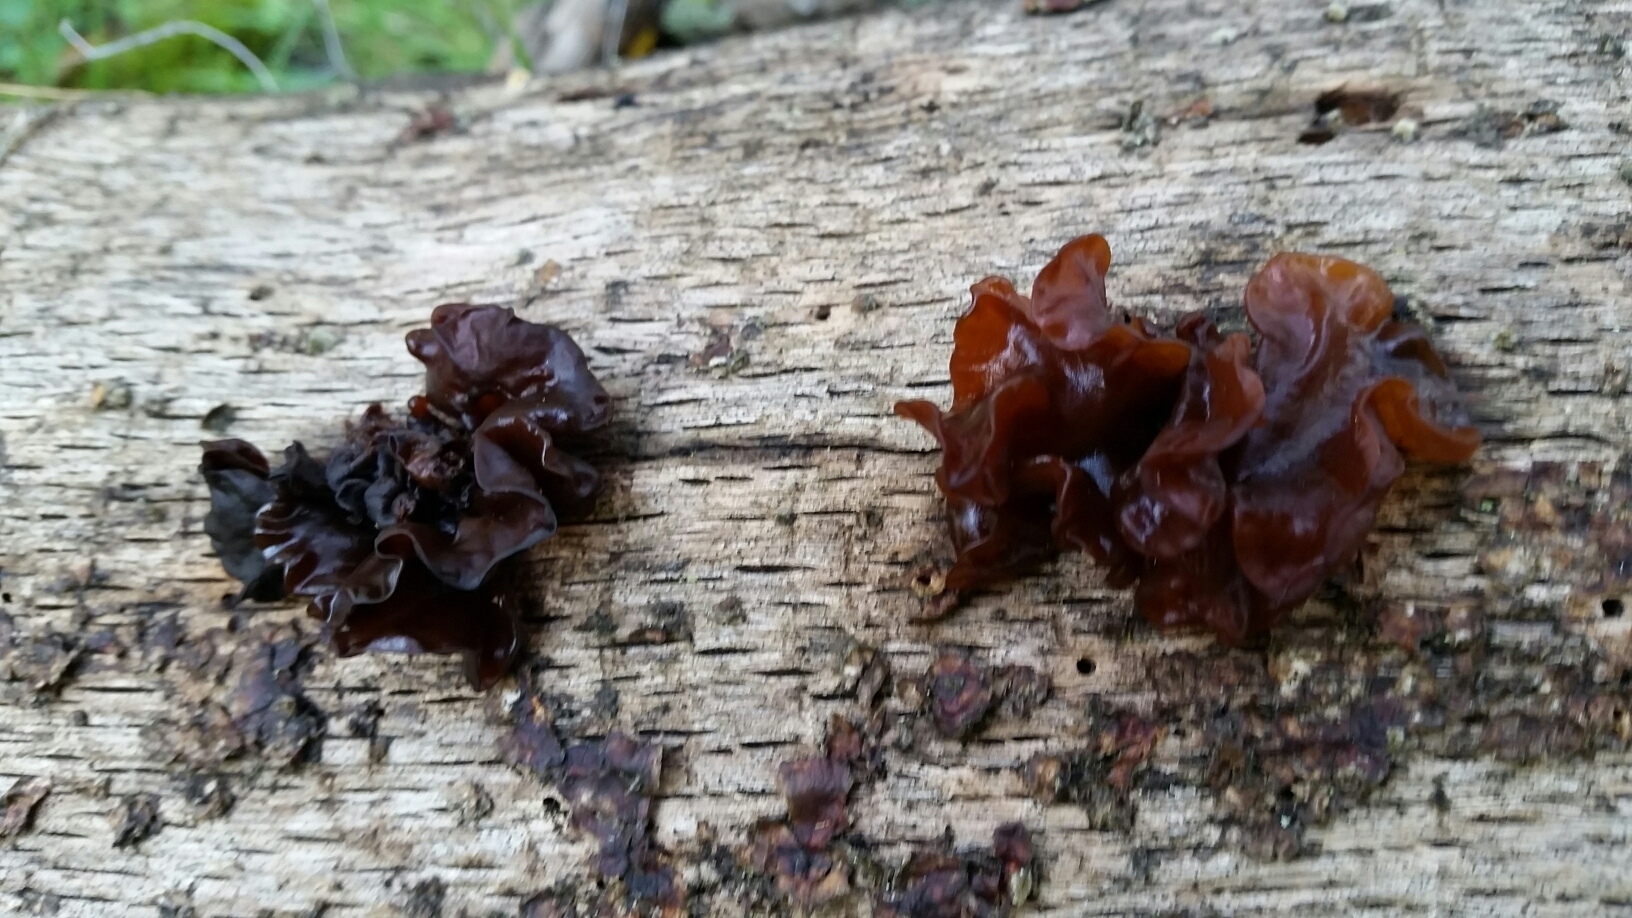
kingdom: Fungi
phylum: Basidiomycota
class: Tremellomycetes
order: Tremellales
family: Tremellaceae
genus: Phaeotremella
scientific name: Phaeotremella foliacea
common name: Leafy brain
